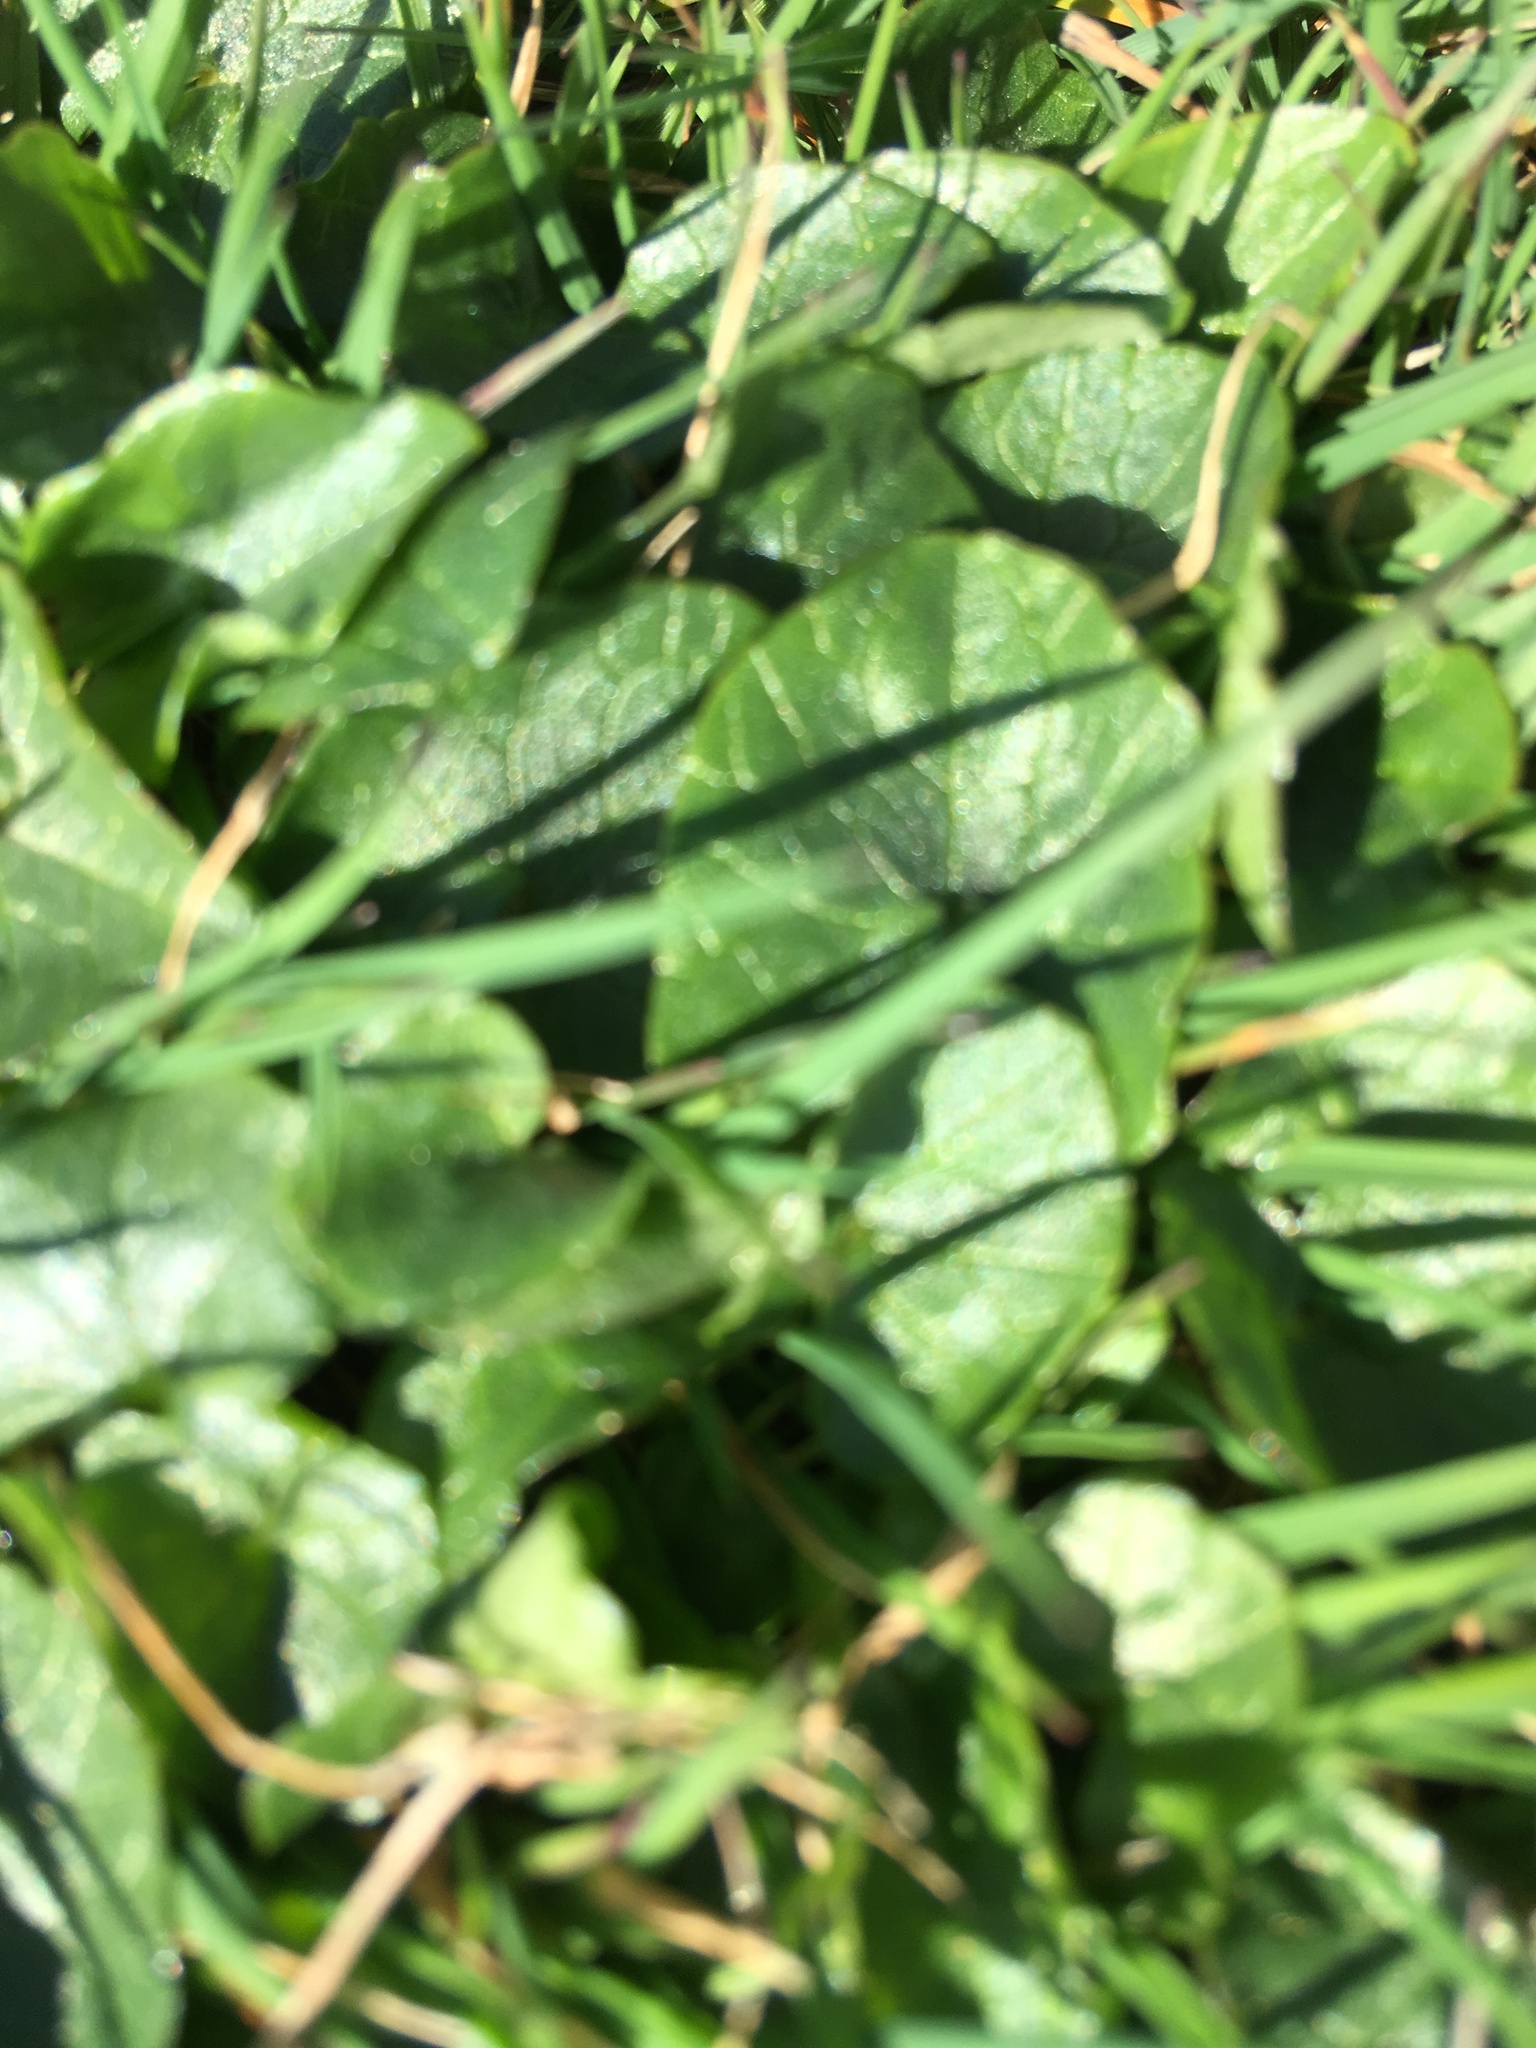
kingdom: Plantae
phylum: Tracheophyta
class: Magnoliopsida
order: Ranunculales
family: Ranunculaceae
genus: Ficaria
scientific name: Ficaria verna
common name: Lesser celandine
